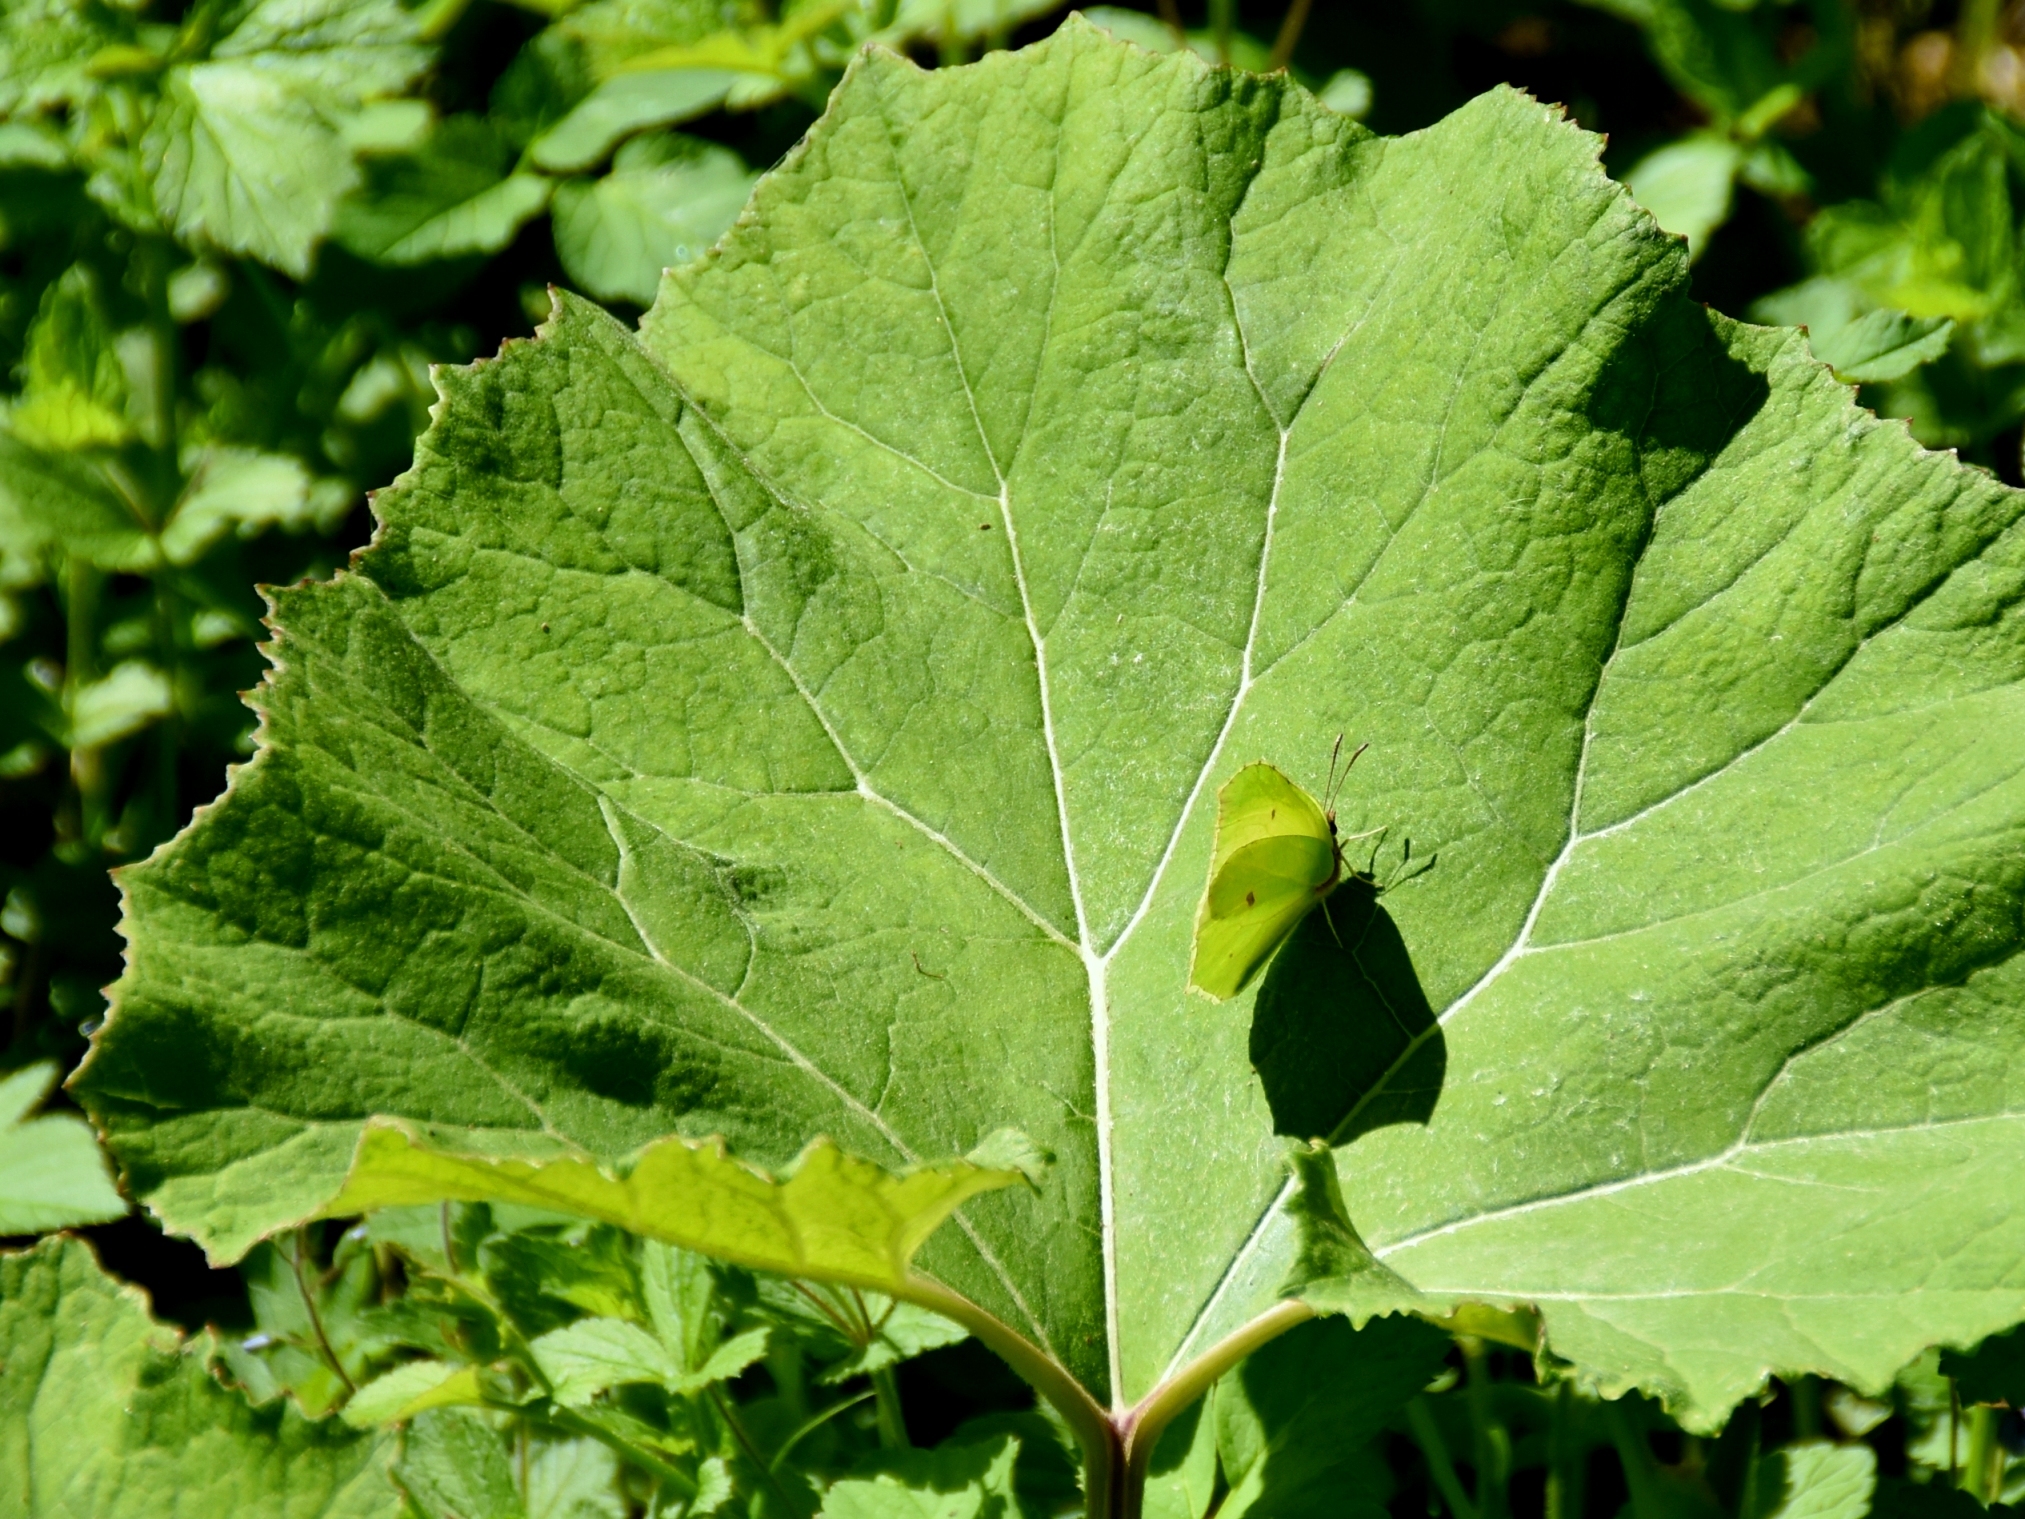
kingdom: Animalia
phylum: Arthropoda
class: Insecta
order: Lepidoptera
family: Pieridae
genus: Gonepteryx
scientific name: Gonepteryx rhamni
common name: Brimstone
